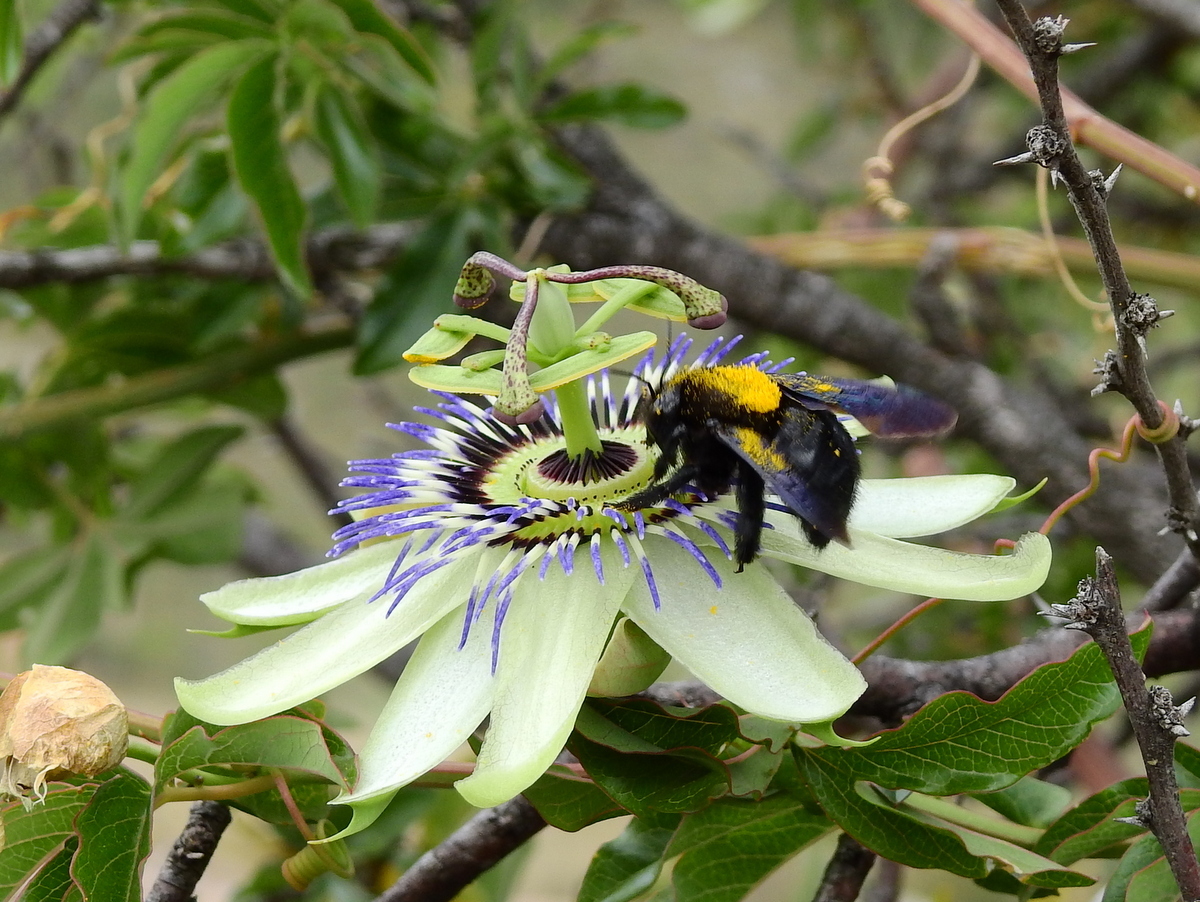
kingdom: Plantae
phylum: Tracheophyta
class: Magnoliopsida
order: Malpighiales
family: Passifloraceae
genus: Passiflora
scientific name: Passiflora caerulea
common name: Blue passionflower
